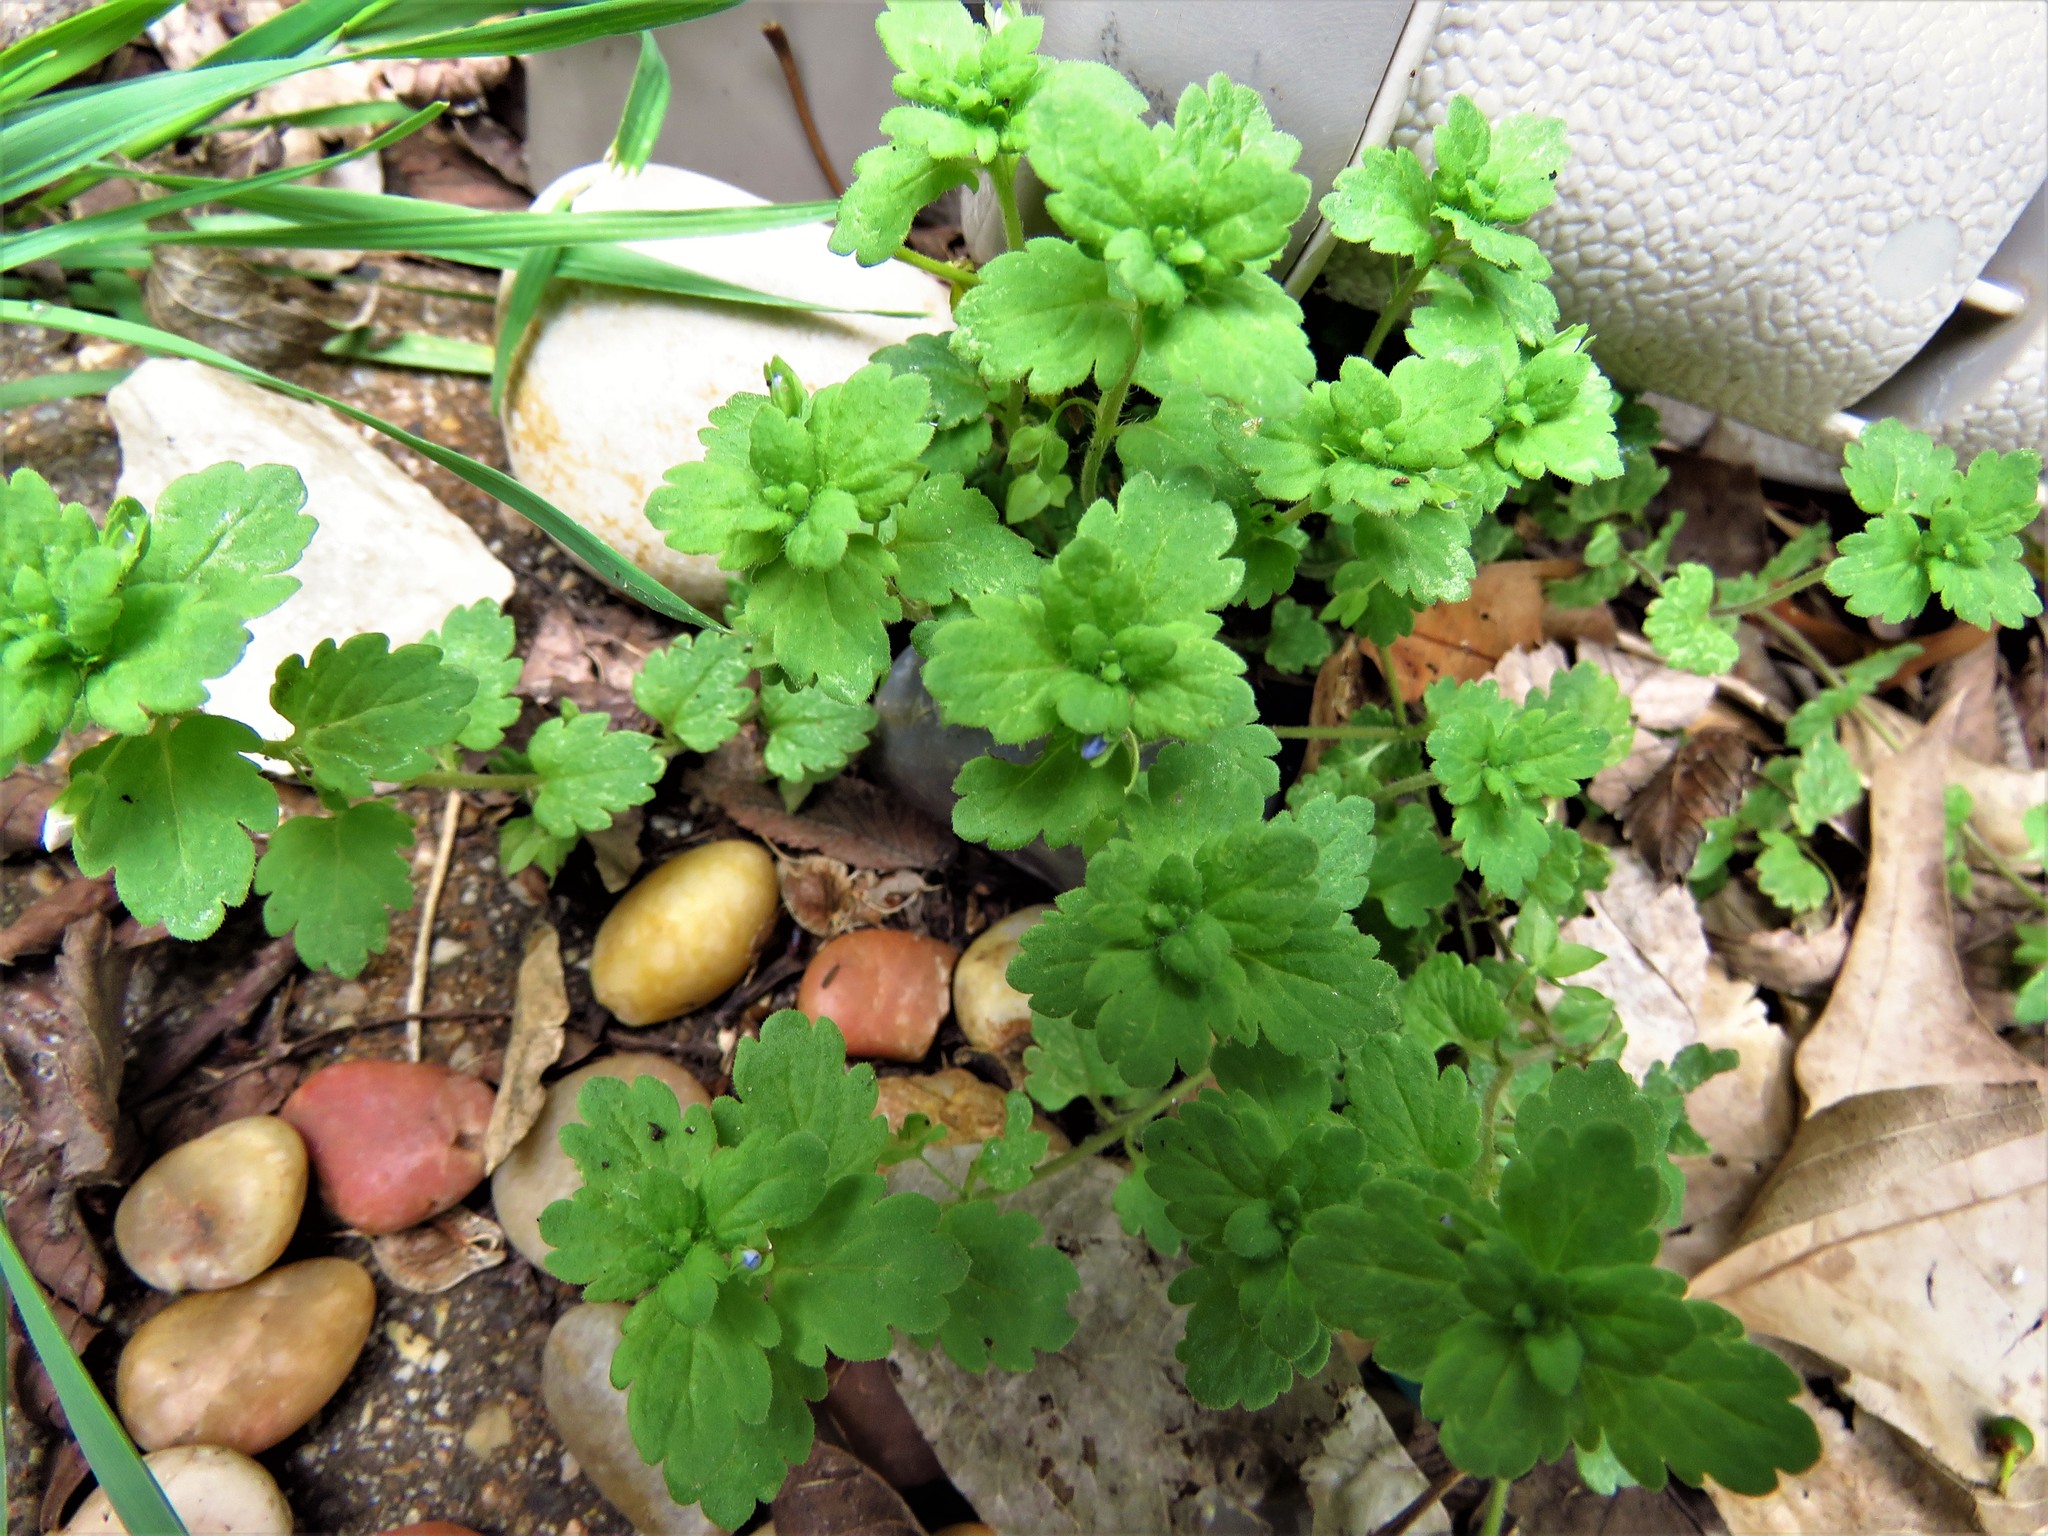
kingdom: Plantae
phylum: Tracheophyta
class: Magnoliopsida
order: Lamiales
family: Plantaginaceae
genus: Veronica
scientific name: Veronica persica
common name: Common field-speedwell
